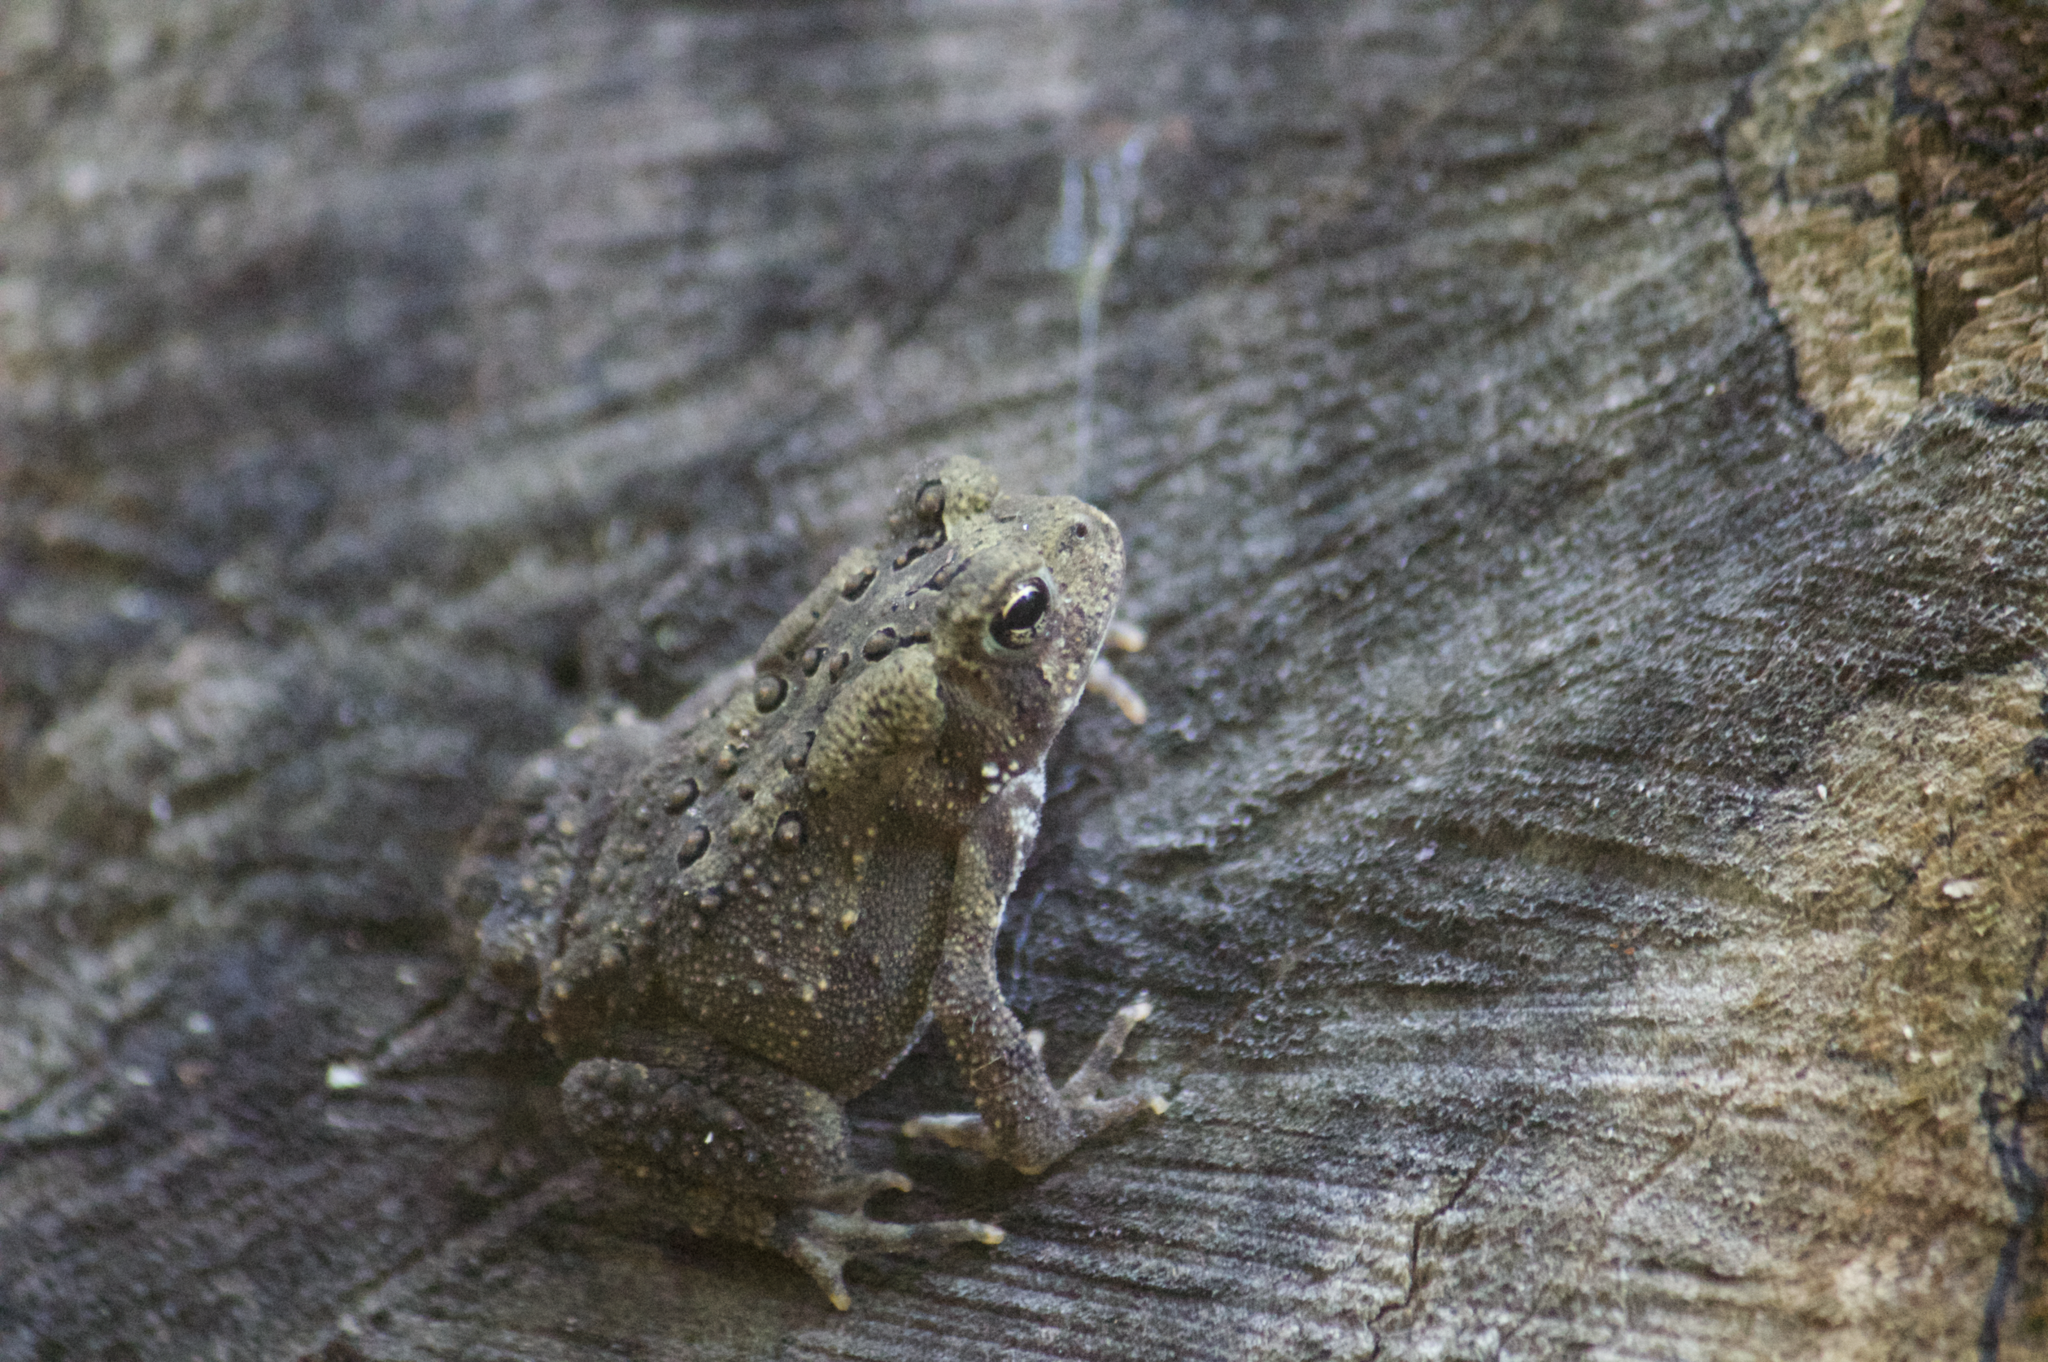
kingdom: Animalia
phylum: Chordata
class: Amphibia
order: Anura
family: Bufonidae
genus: Anaxyrus
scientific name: Anaxyrus americanus
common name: American toad
